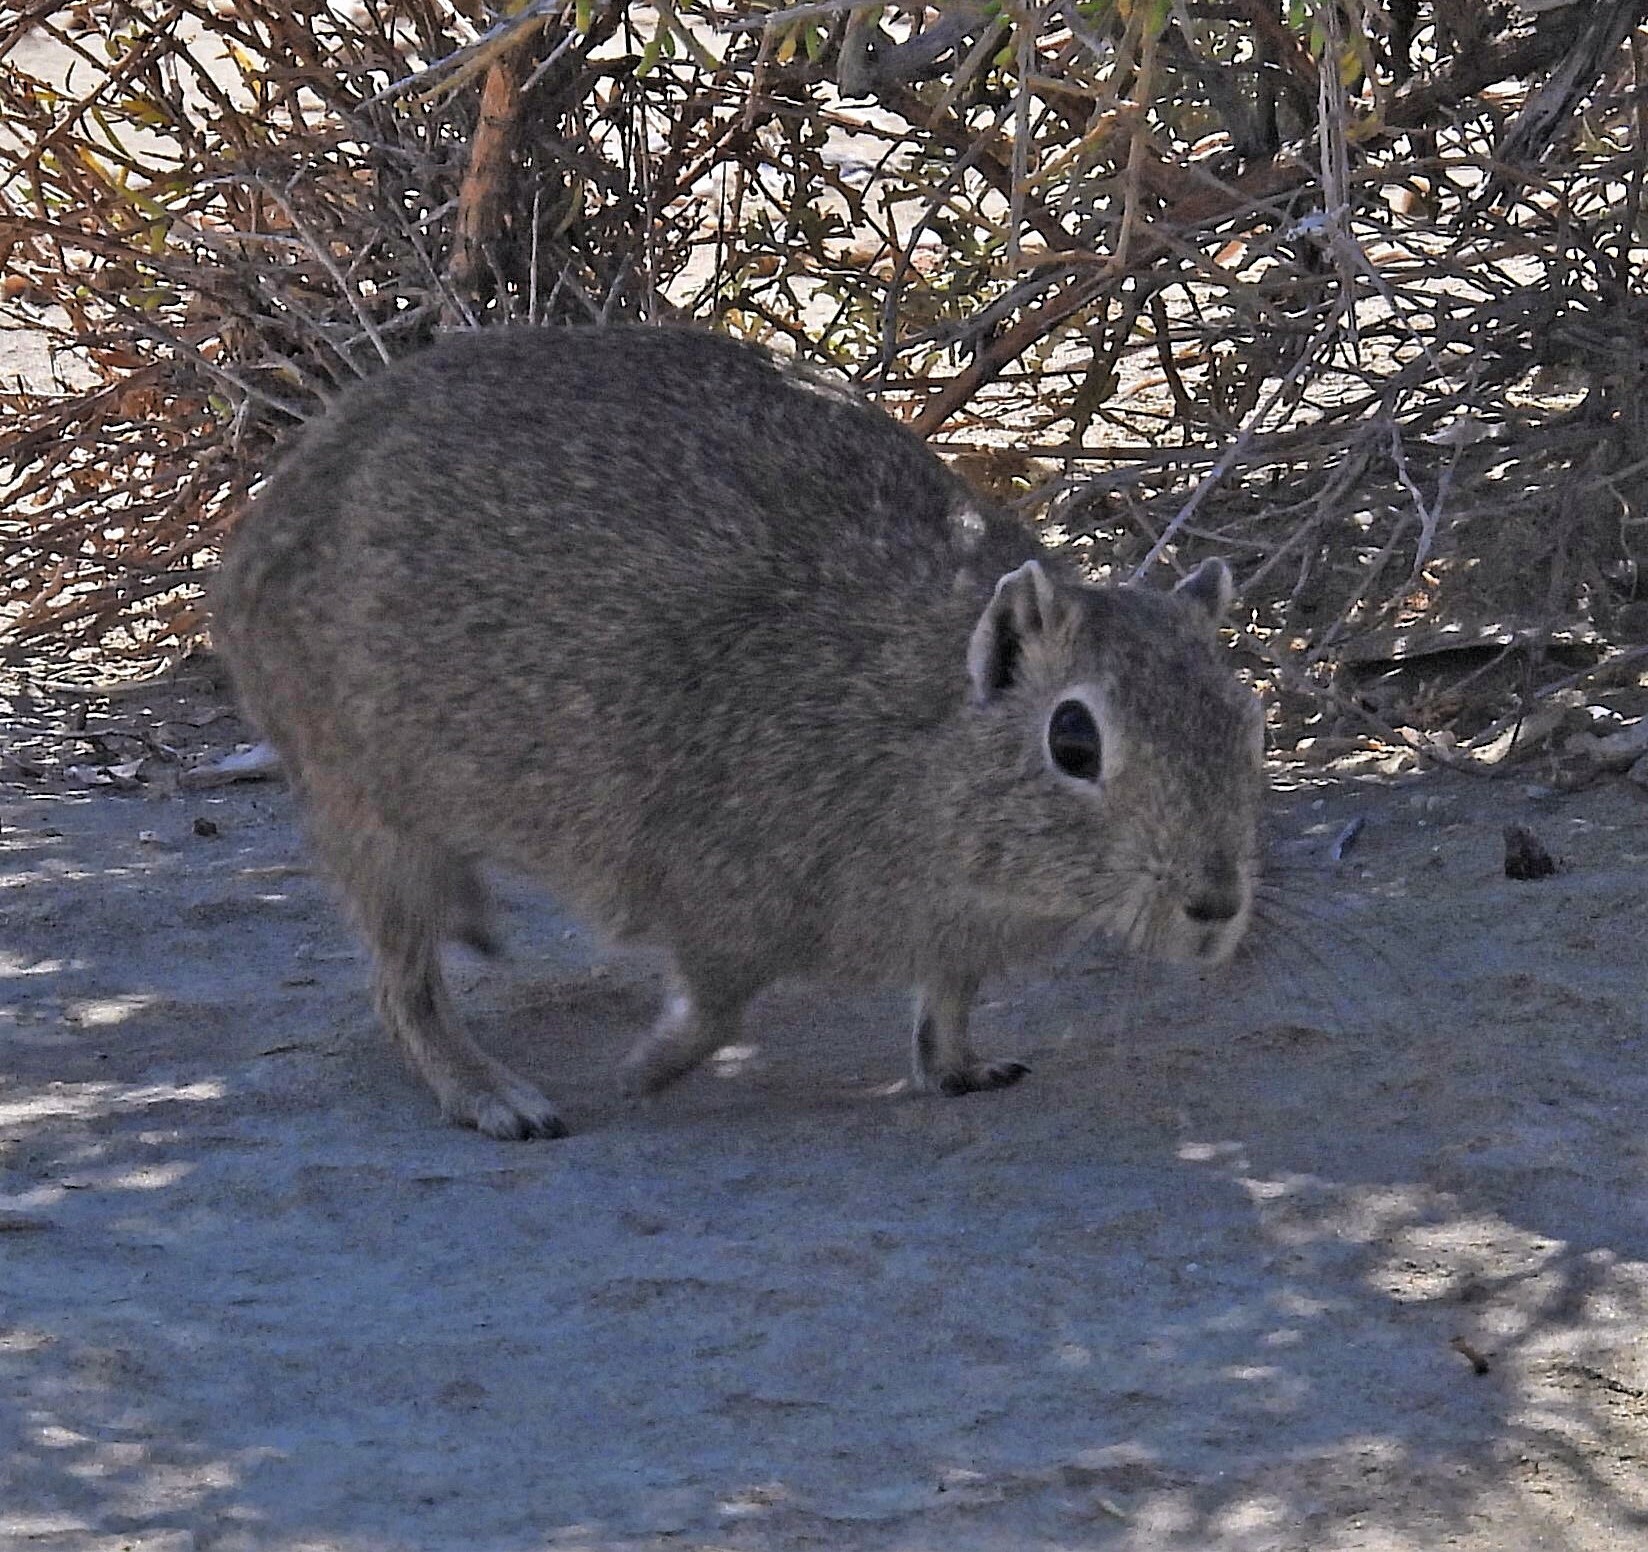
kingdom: Animalia
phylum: Chordata
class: Mammalia
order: Rodentia
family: Caviidae
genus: Microcavia
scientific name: Microcavia australis
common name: Southern mountain cavy
